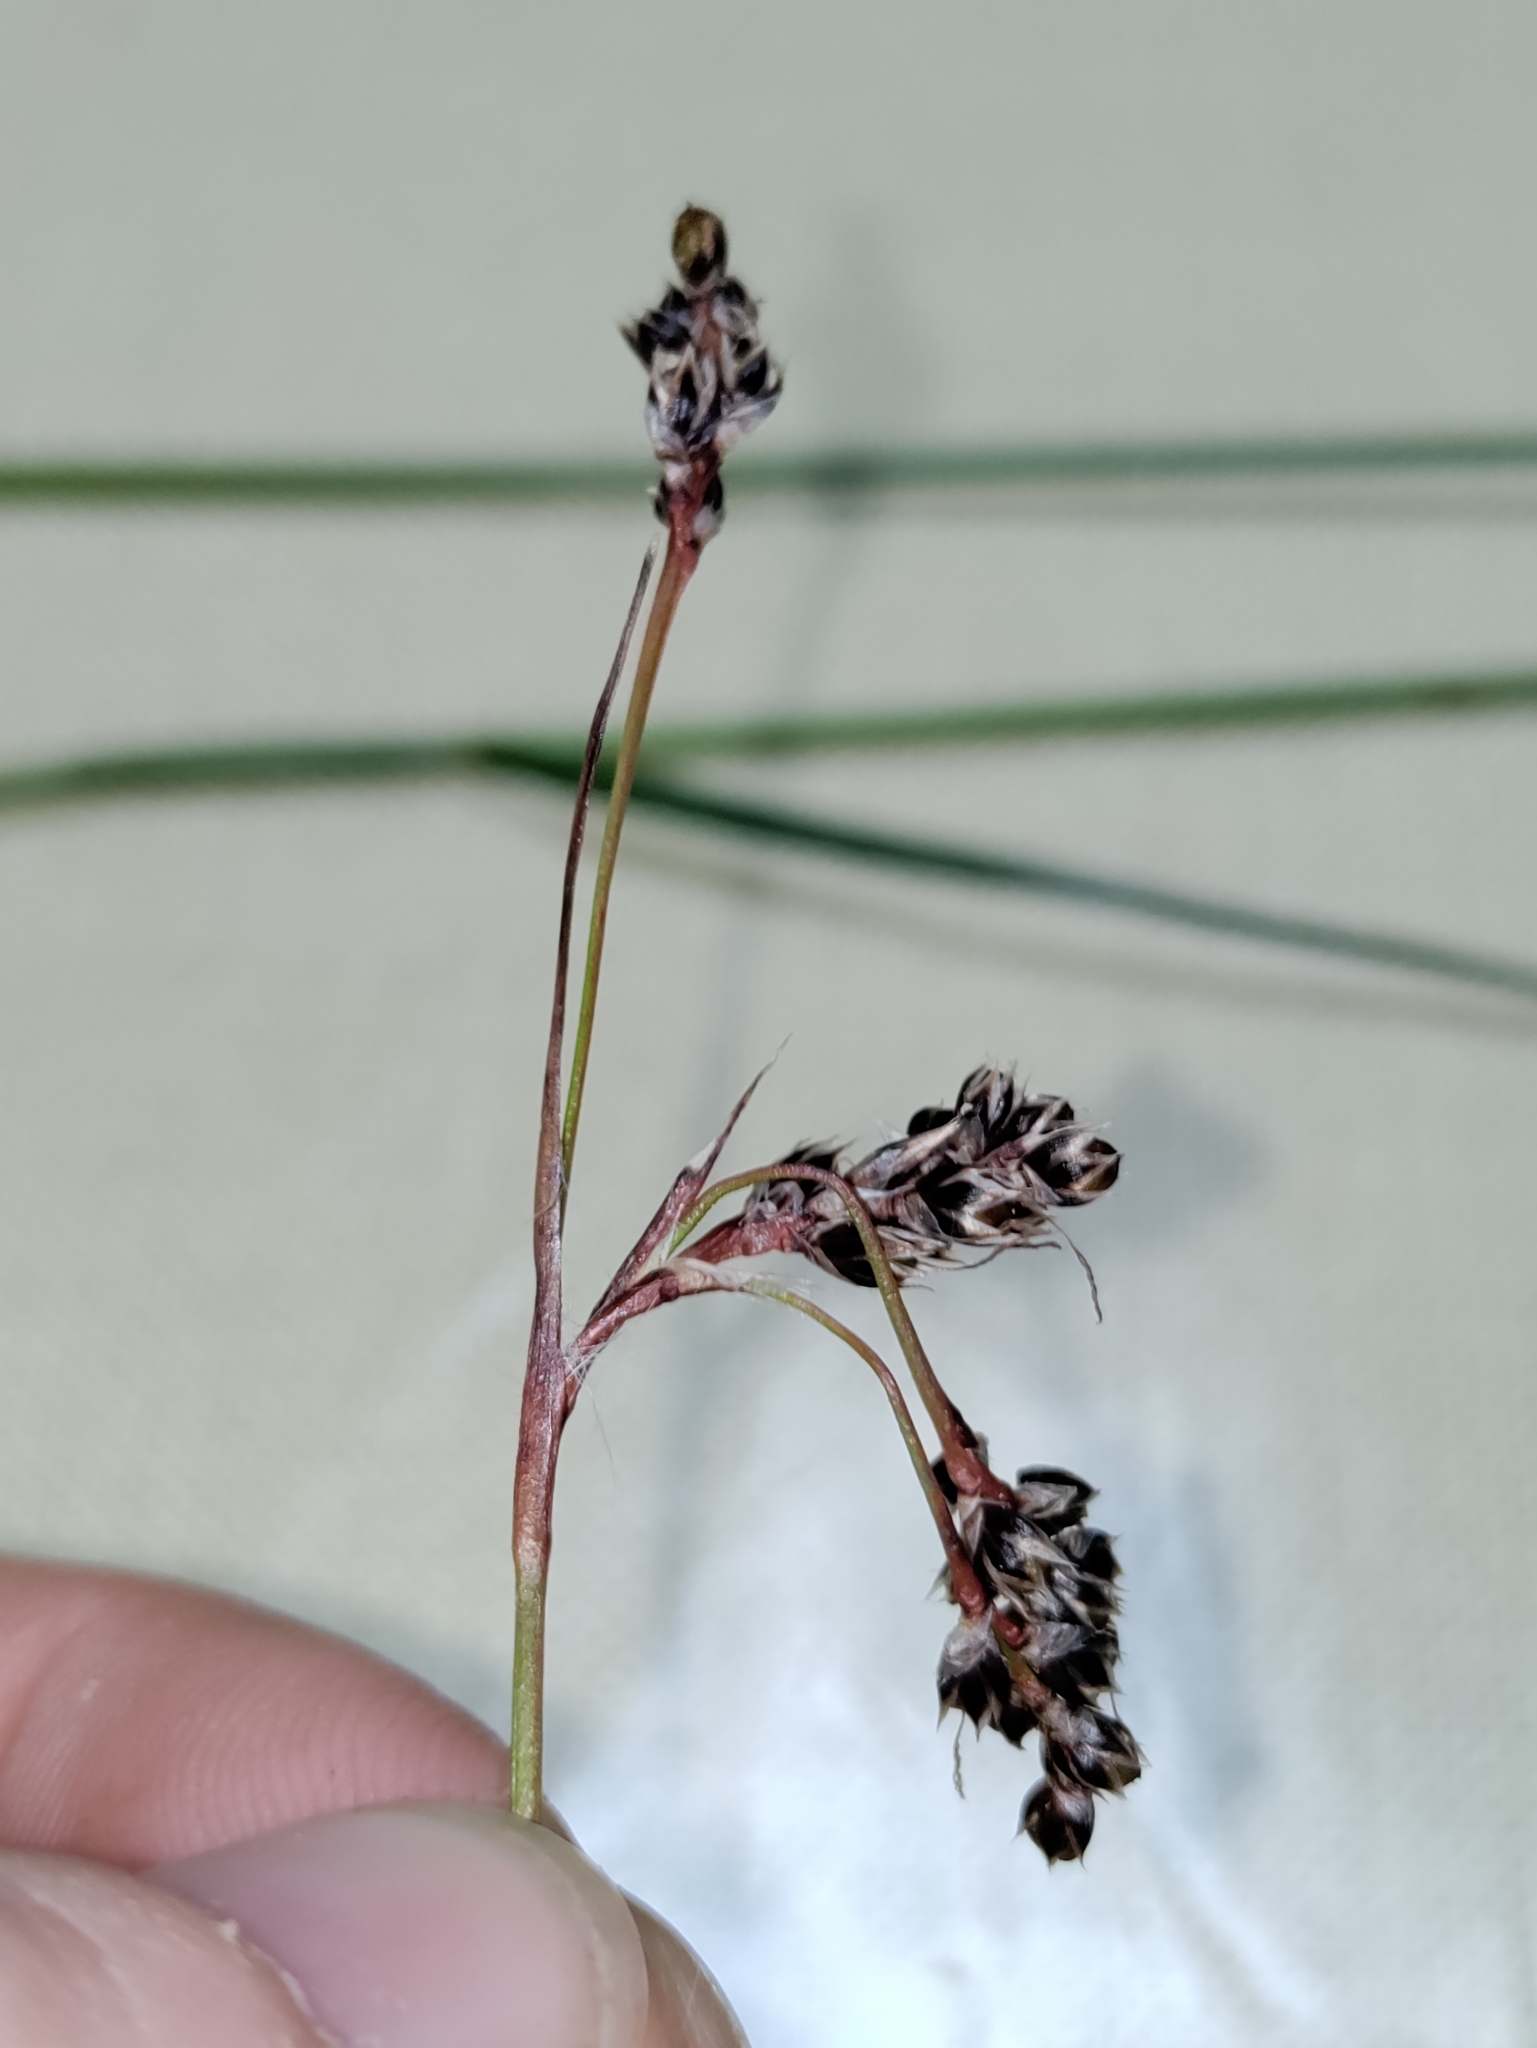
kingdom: Plantae
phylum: Tracheophyta
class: Liliopsida
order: Poales
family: Juncaceae
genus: Luzula
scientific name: Luzula campestris
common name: Field wood-rush
